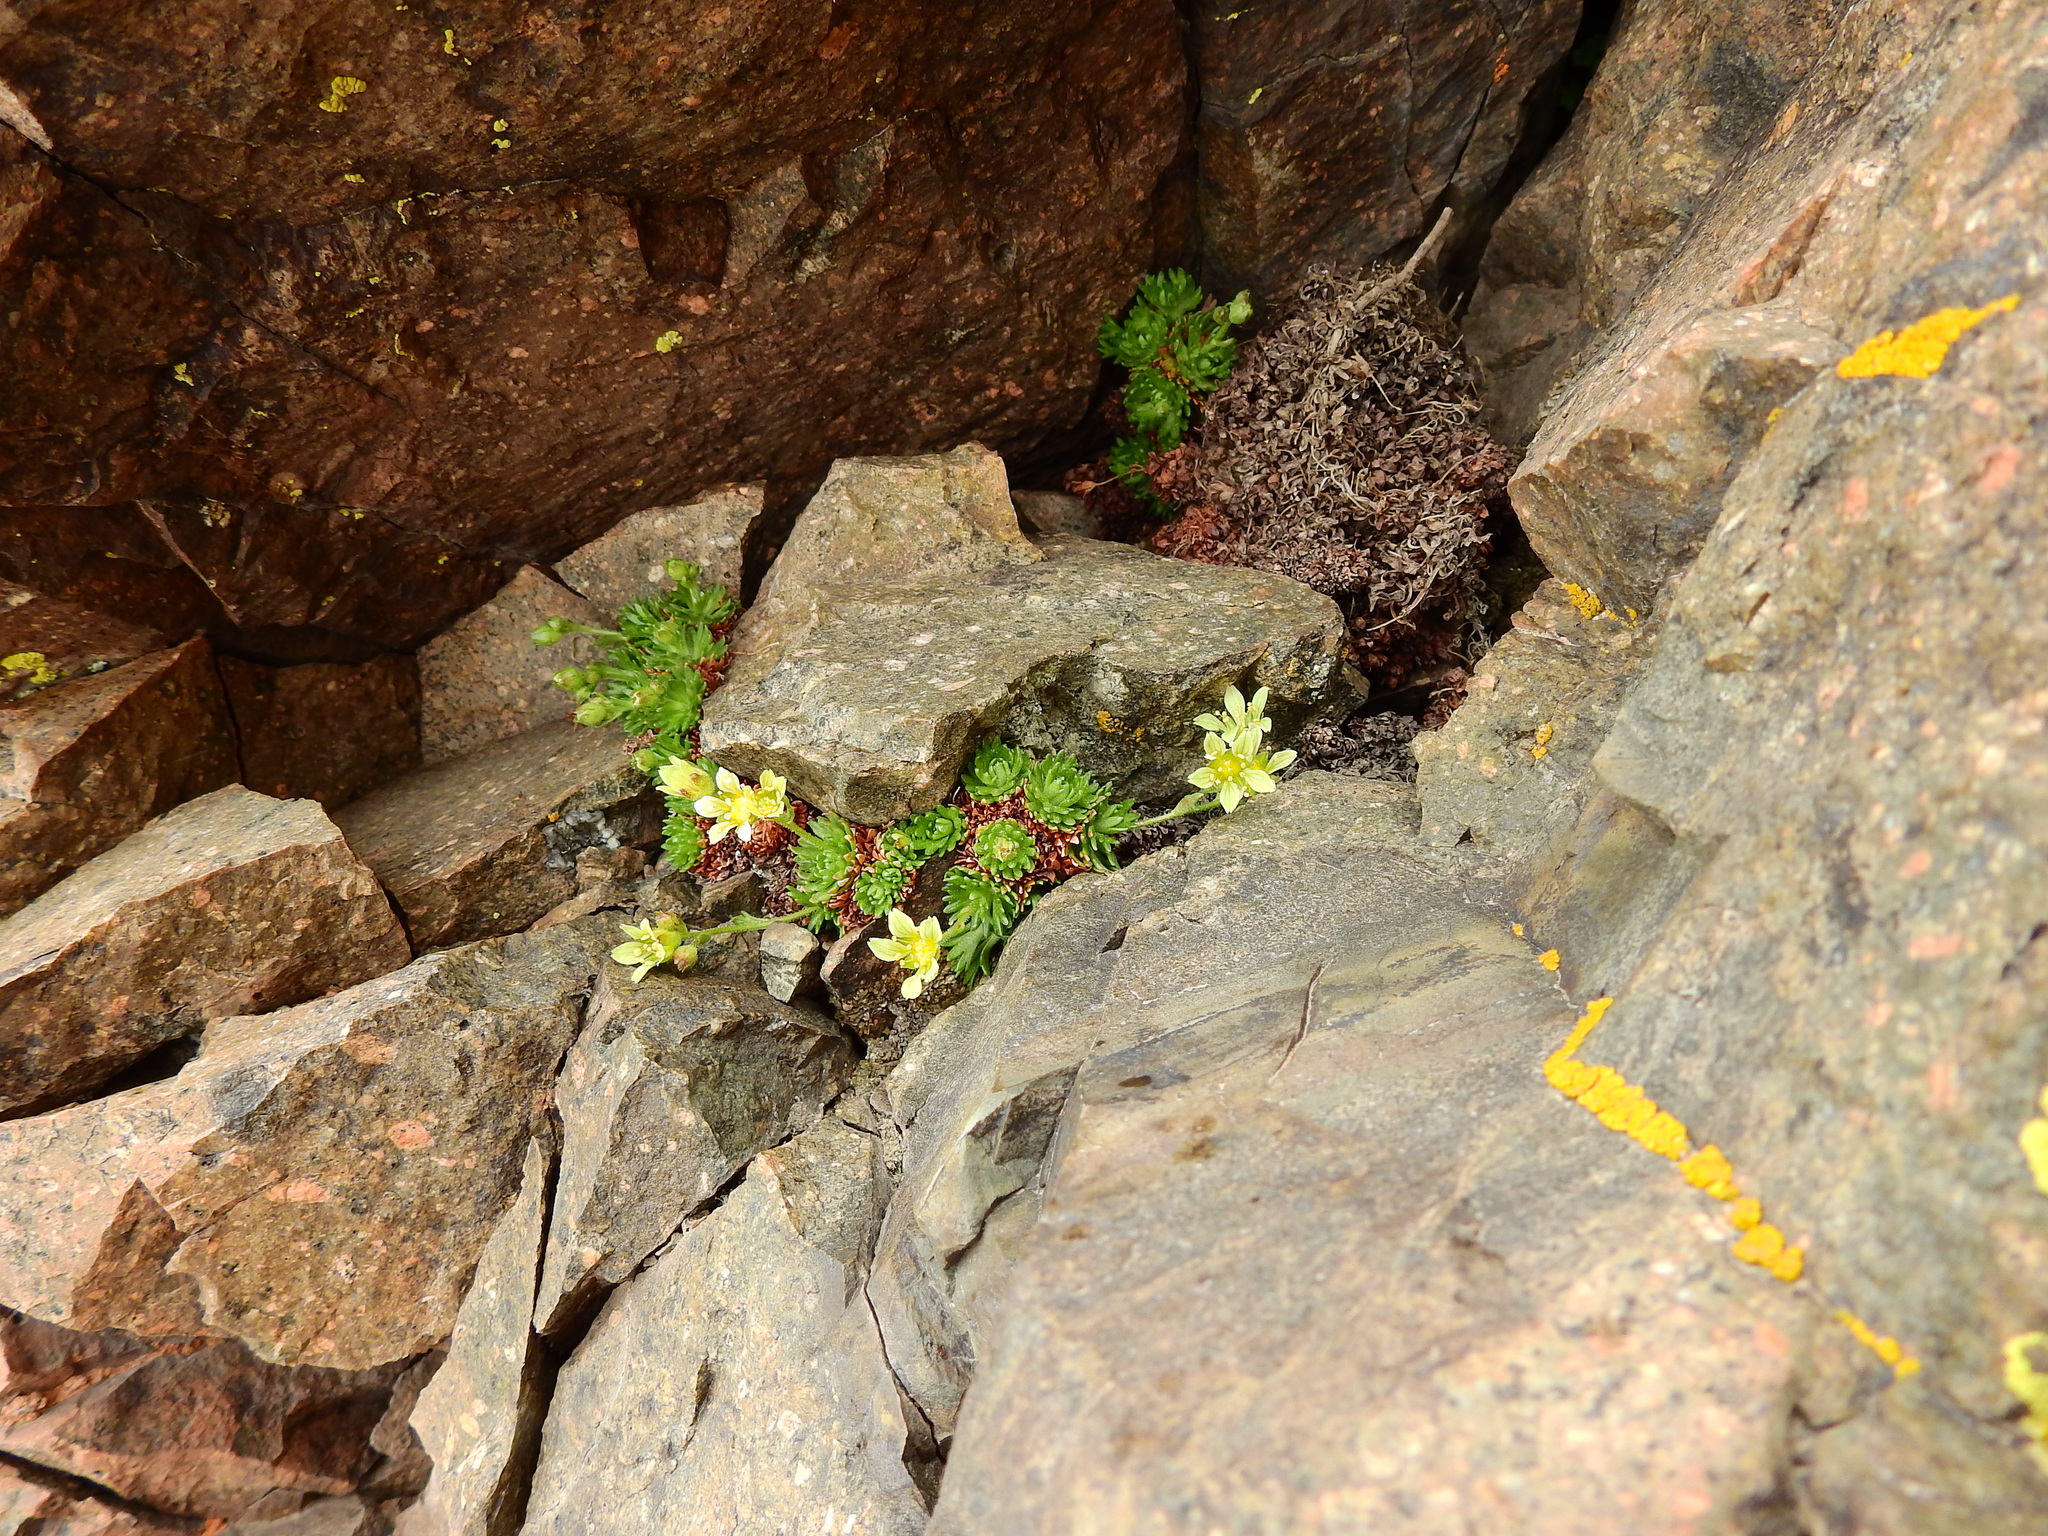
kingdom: Plantae
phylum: Tracheophyta
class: Magnoliopsida
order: Saxifragales
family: Saxifragaceae
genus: Saxifraga
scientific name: Saxifraga magellanica
